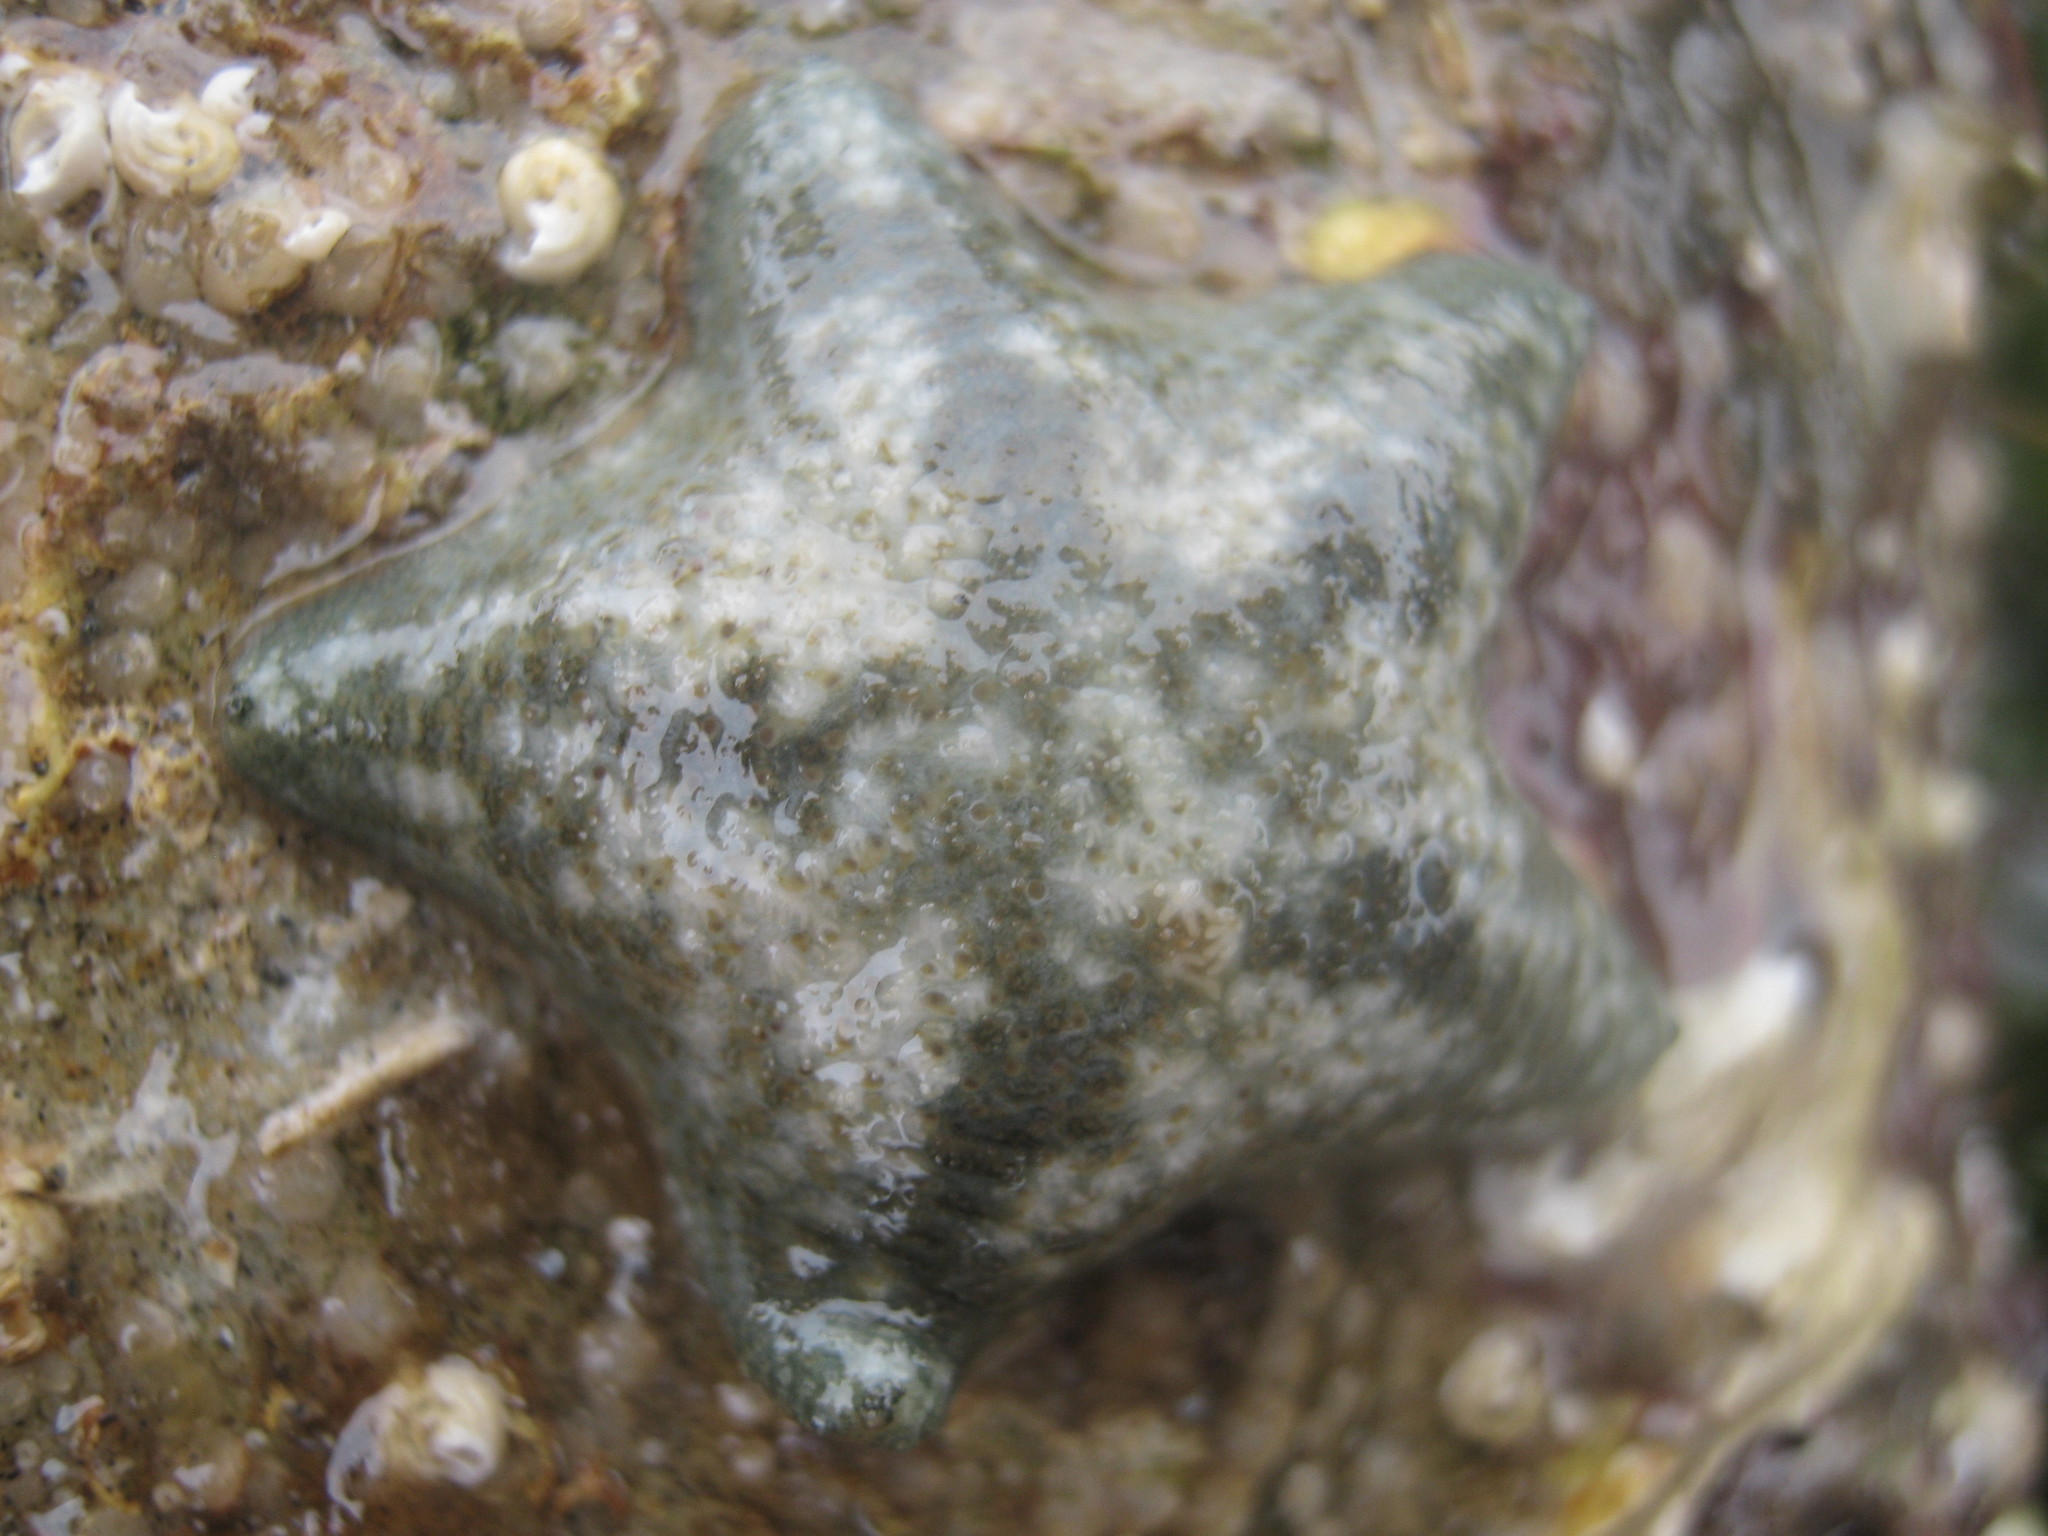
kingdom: Animalia
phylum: Echinodermata
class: Asteroidea
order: Valvatida
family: Asterinidae
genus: Asterina
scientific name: Asterina gibbosa
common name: Cushion star
